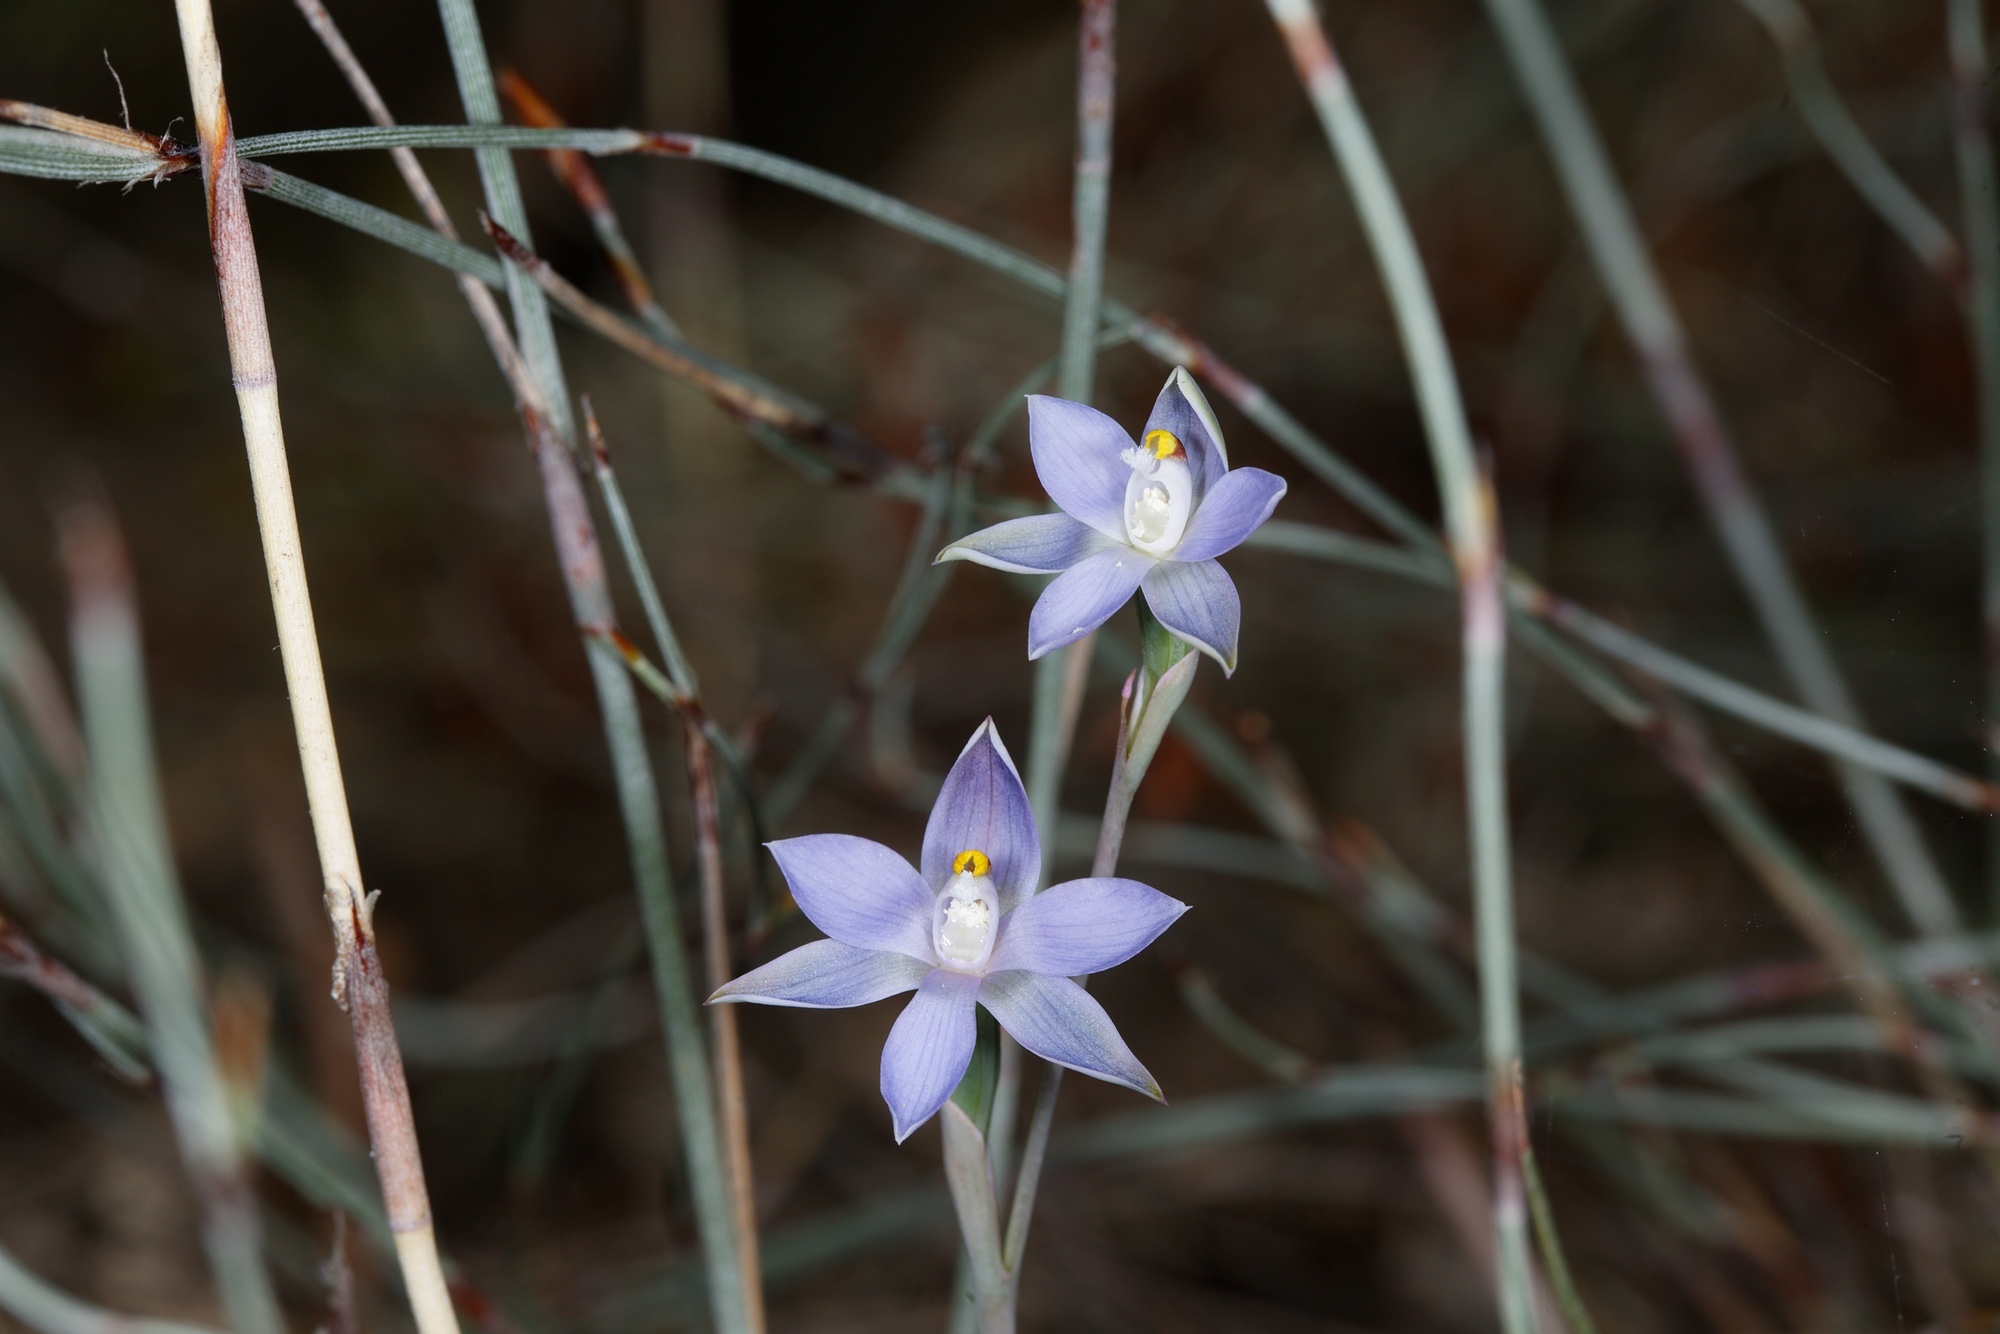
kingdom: Plantae
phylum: Tracheophyta
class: Liliopsida
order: Asparagales
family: Orchidaceae
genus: Thelymitra
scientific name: Thelymitra pauciflora
